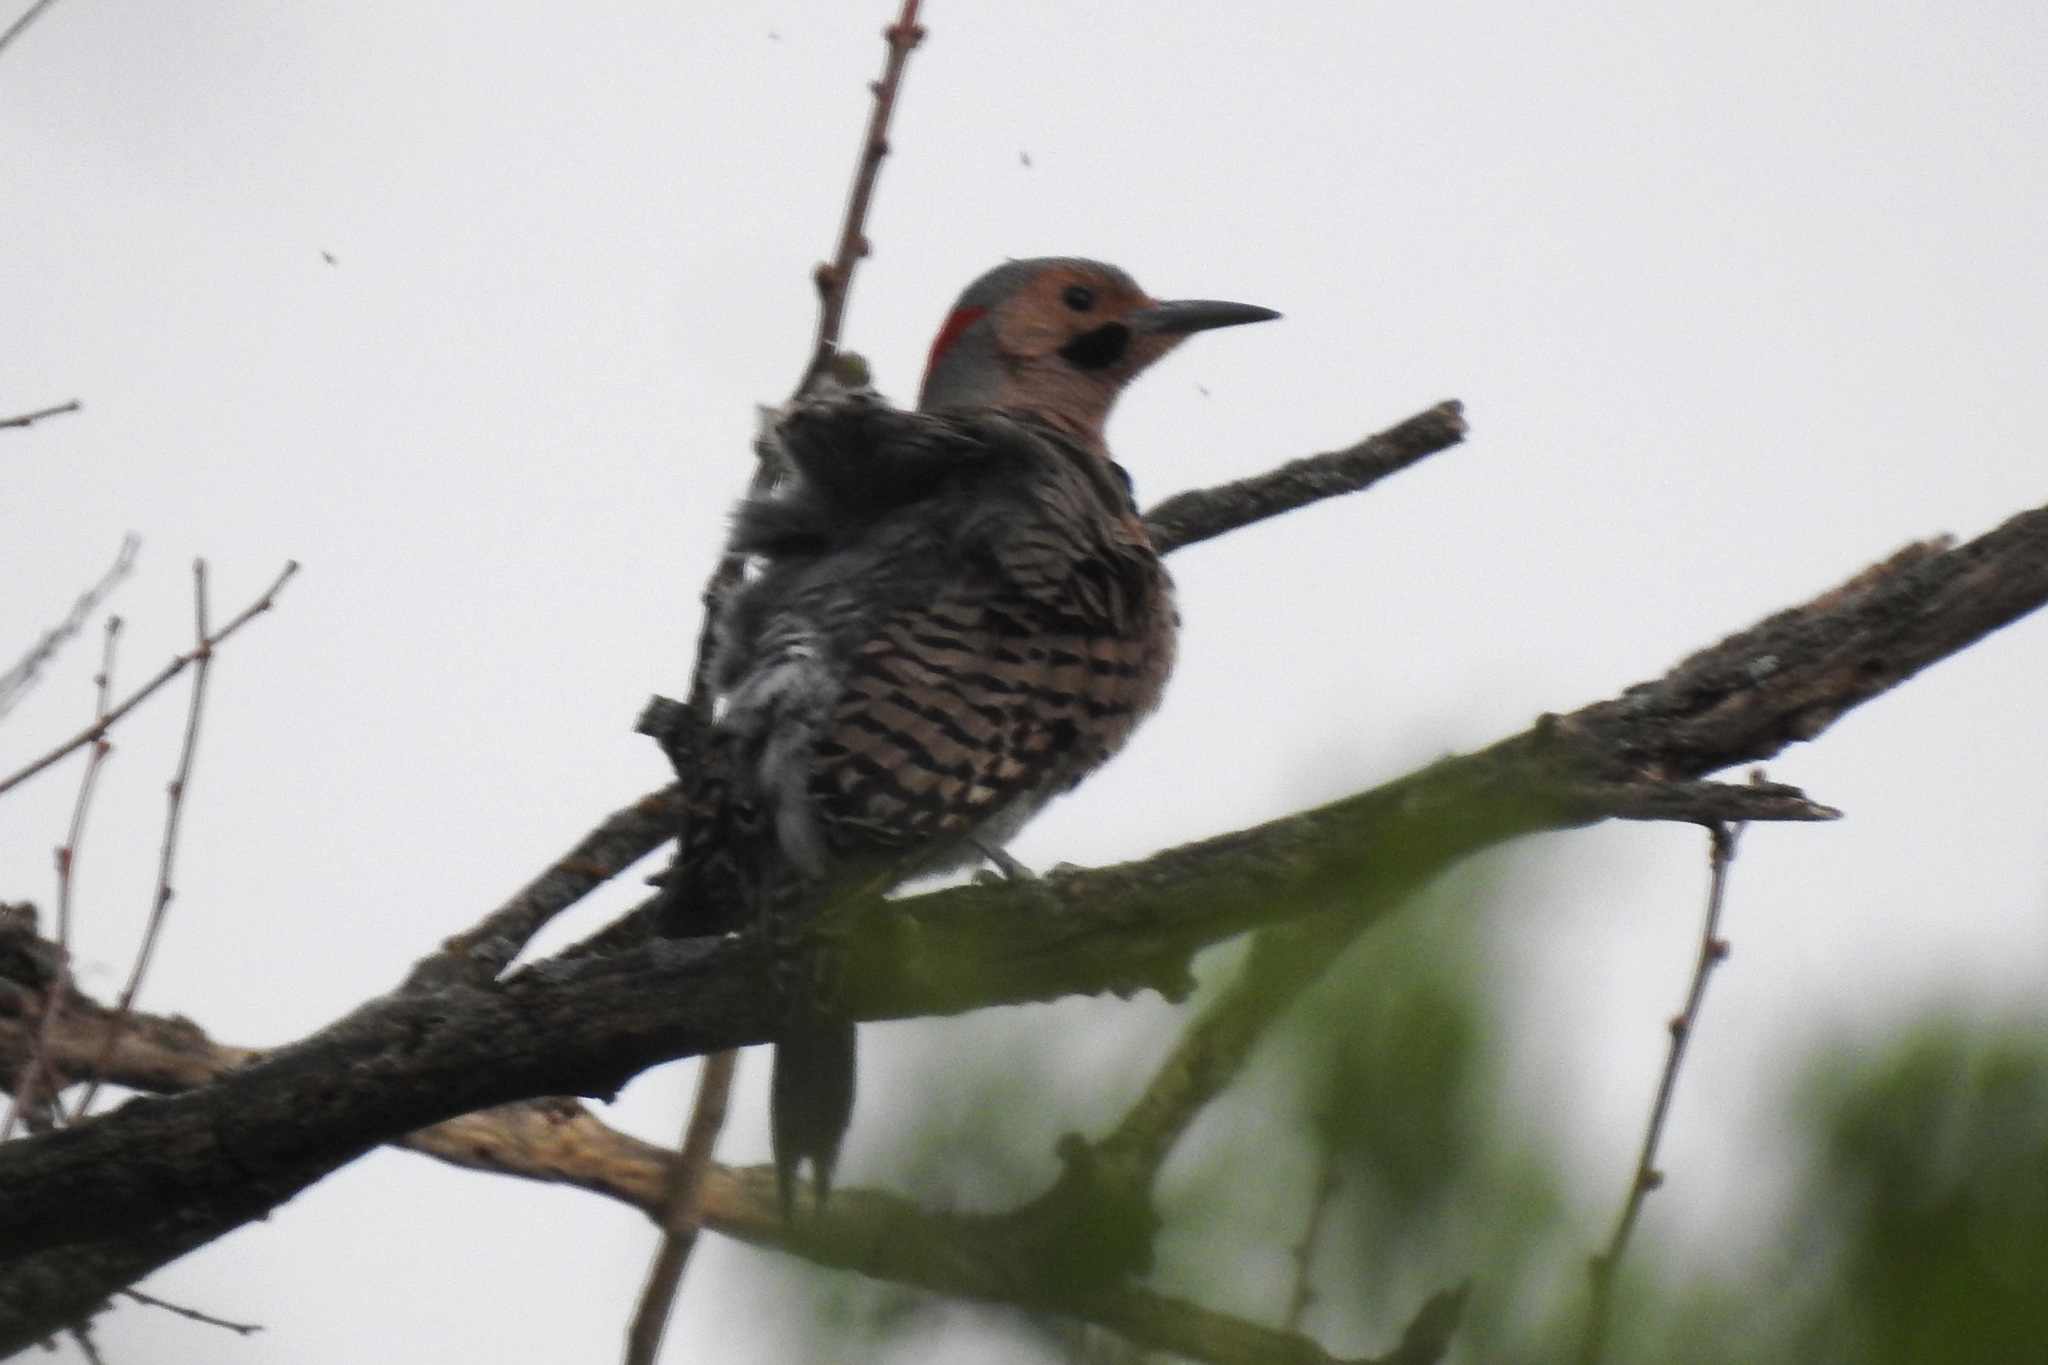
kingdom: Animalia
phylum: Chordata
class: Aves
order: Piciformes
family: Picidae
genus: Colaptes
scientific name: Colaptes auratus
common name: Northern flicker
